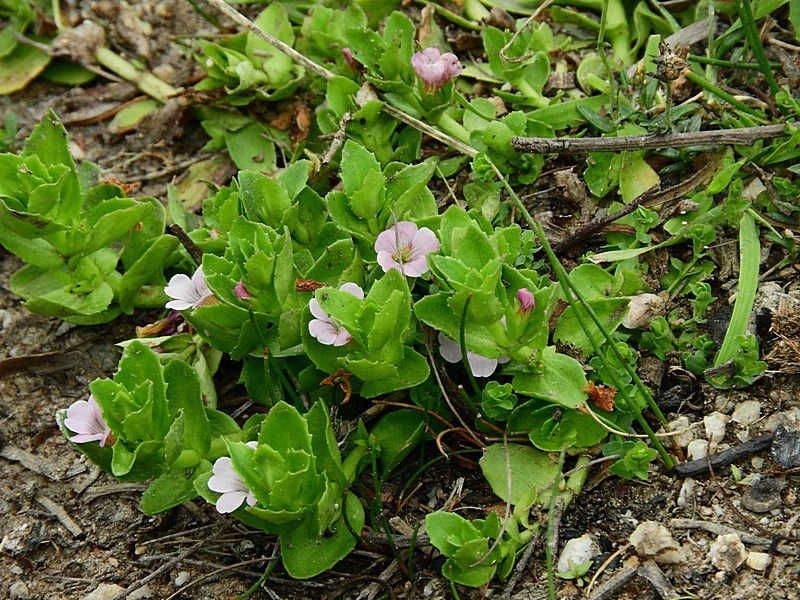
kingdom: Plantae
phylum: Tracheophyta
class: Magnoliopsida
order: Lamiales
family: Plantaginaceae
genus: Gratiola
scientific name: Gratiola peruviana
